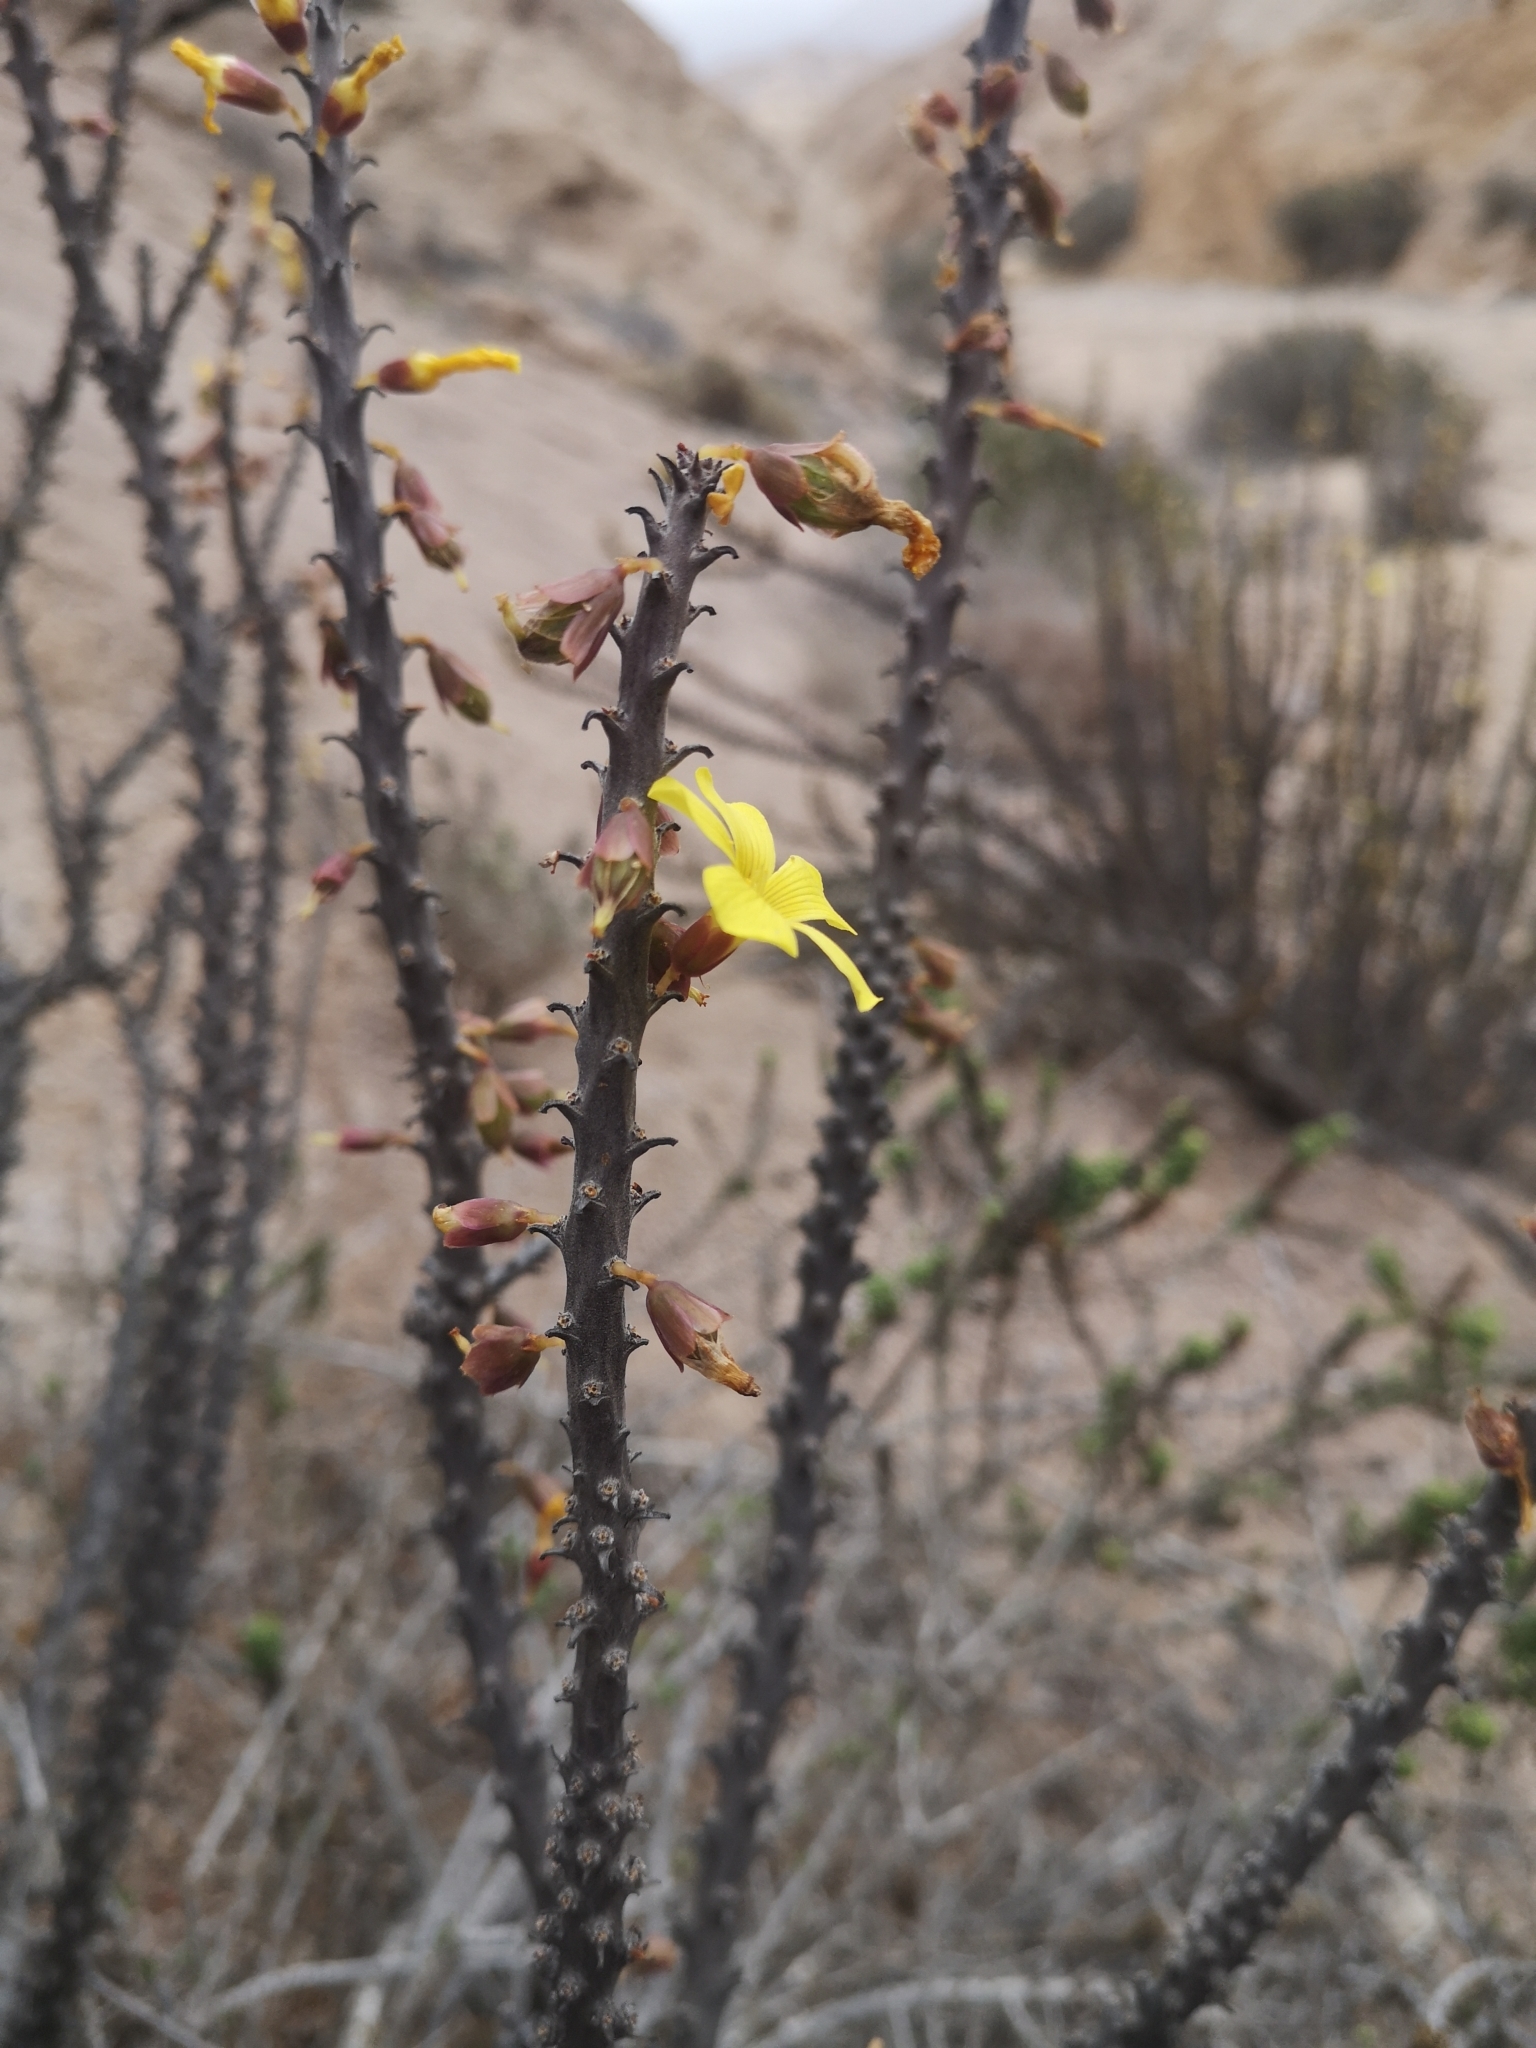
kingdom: Plantae
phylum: Tracheophyta
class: Magnoliopsida
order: Oxalidales
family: Oxalidaceae
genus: Oxalis
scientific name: Oxalis gigantea
